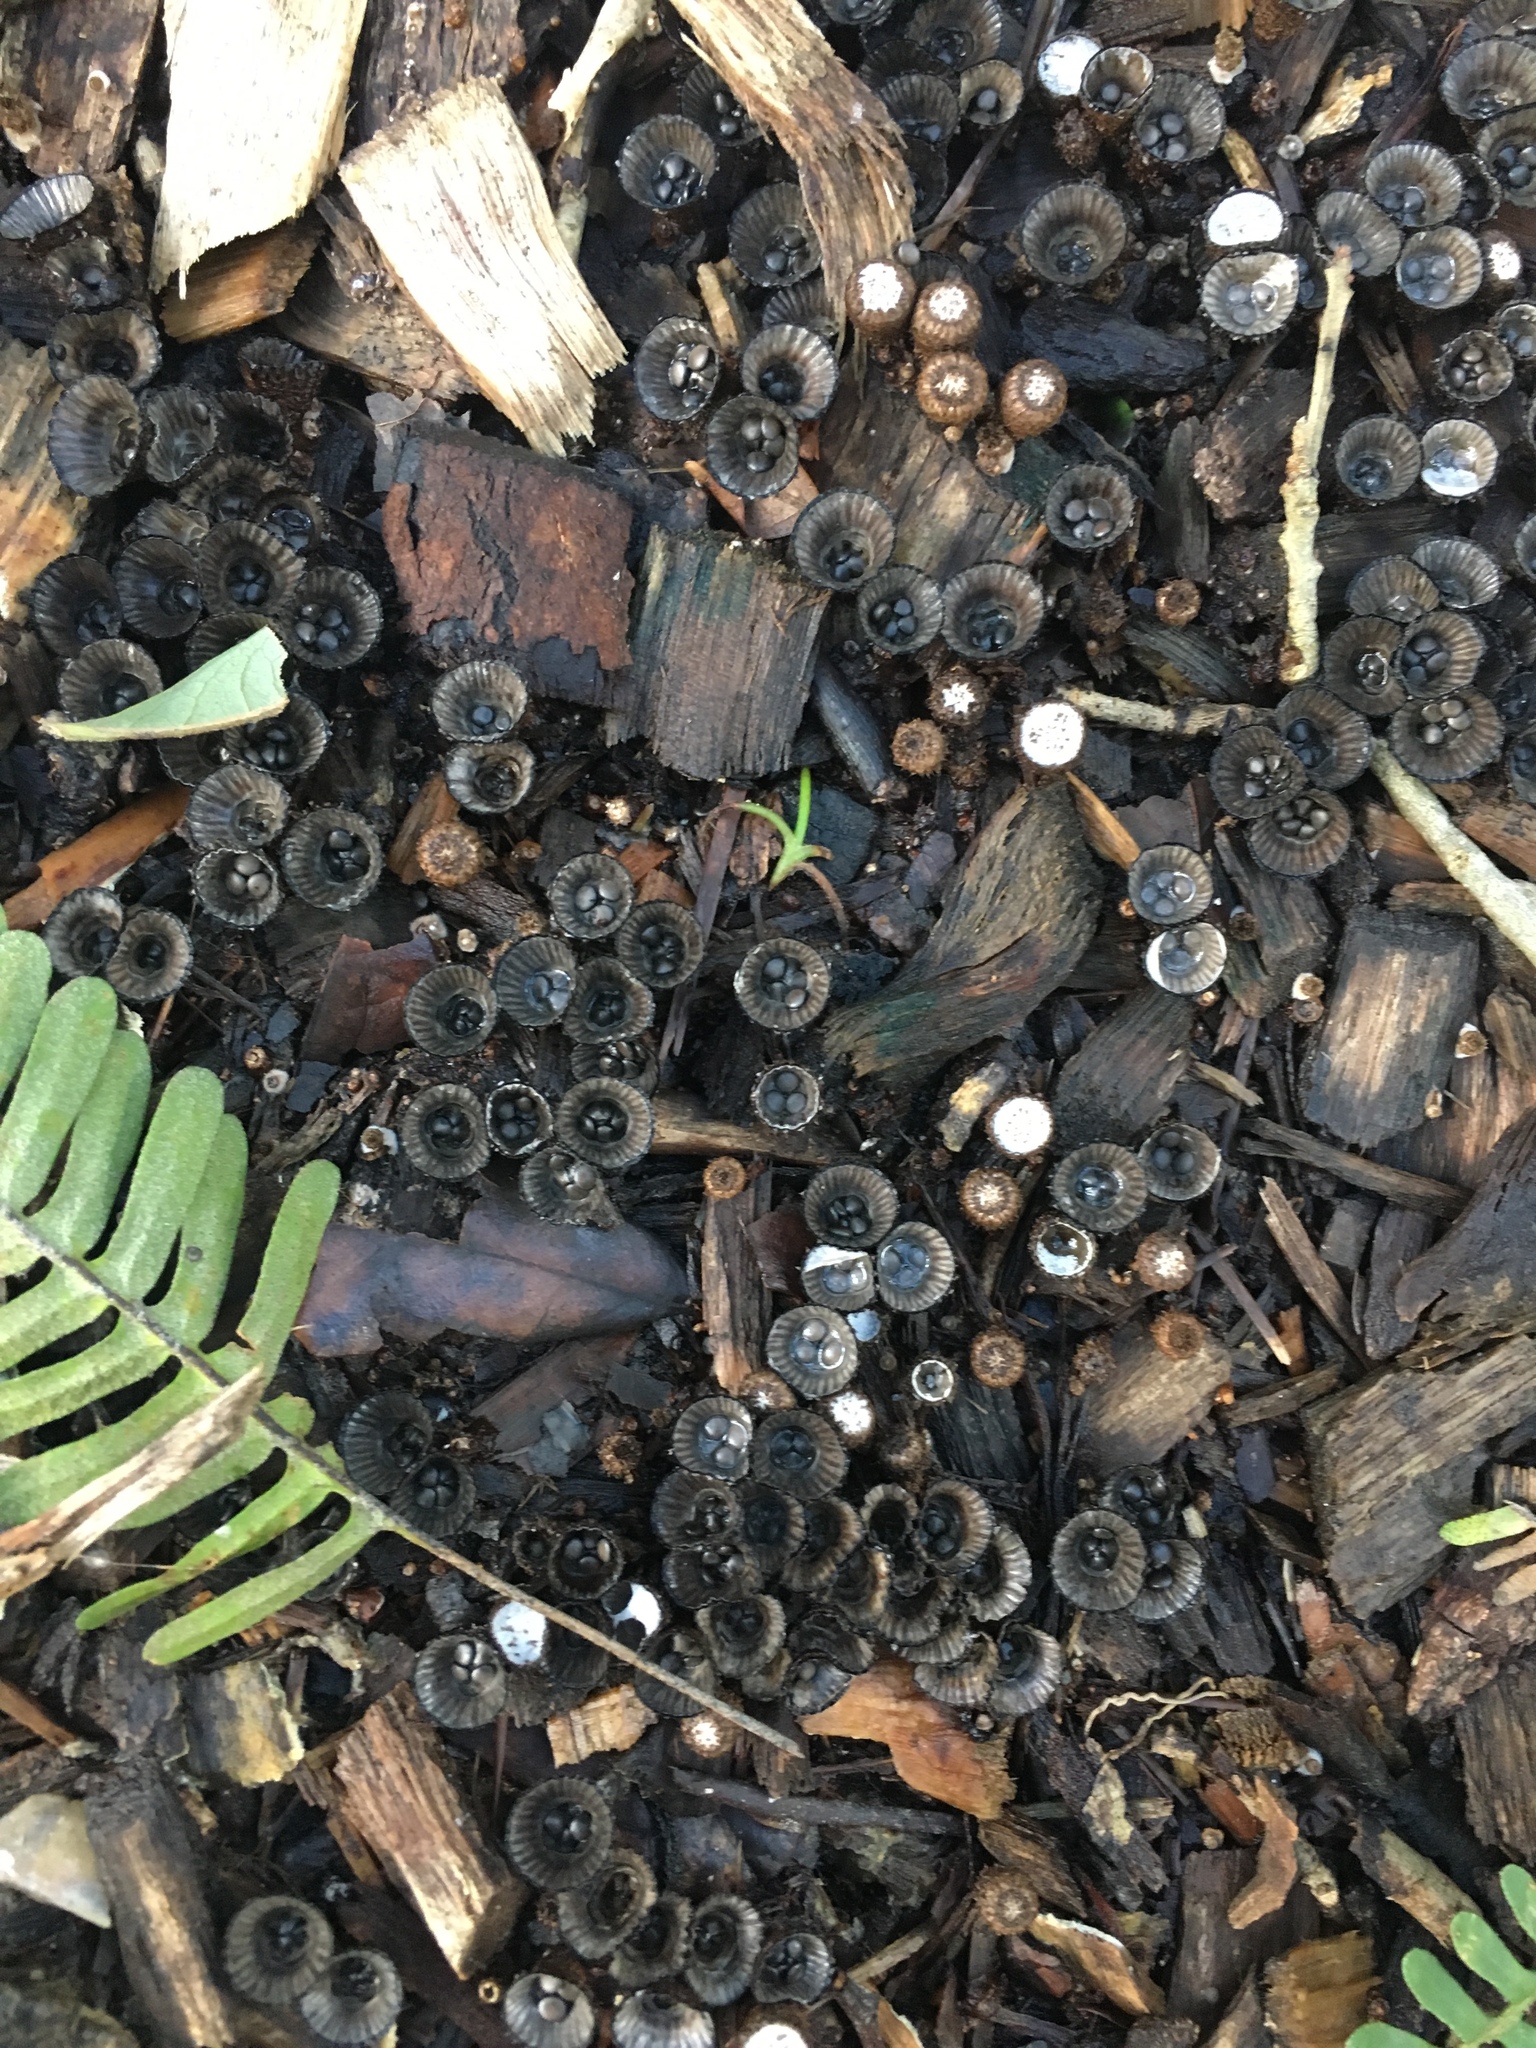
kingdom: Fungi
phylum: Basidiomycota
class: Agaricomycetes
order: Agaricales
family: Agaricaceae
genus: Cyathus
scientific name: Cyathus striatus
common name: Fluted bird's nest
